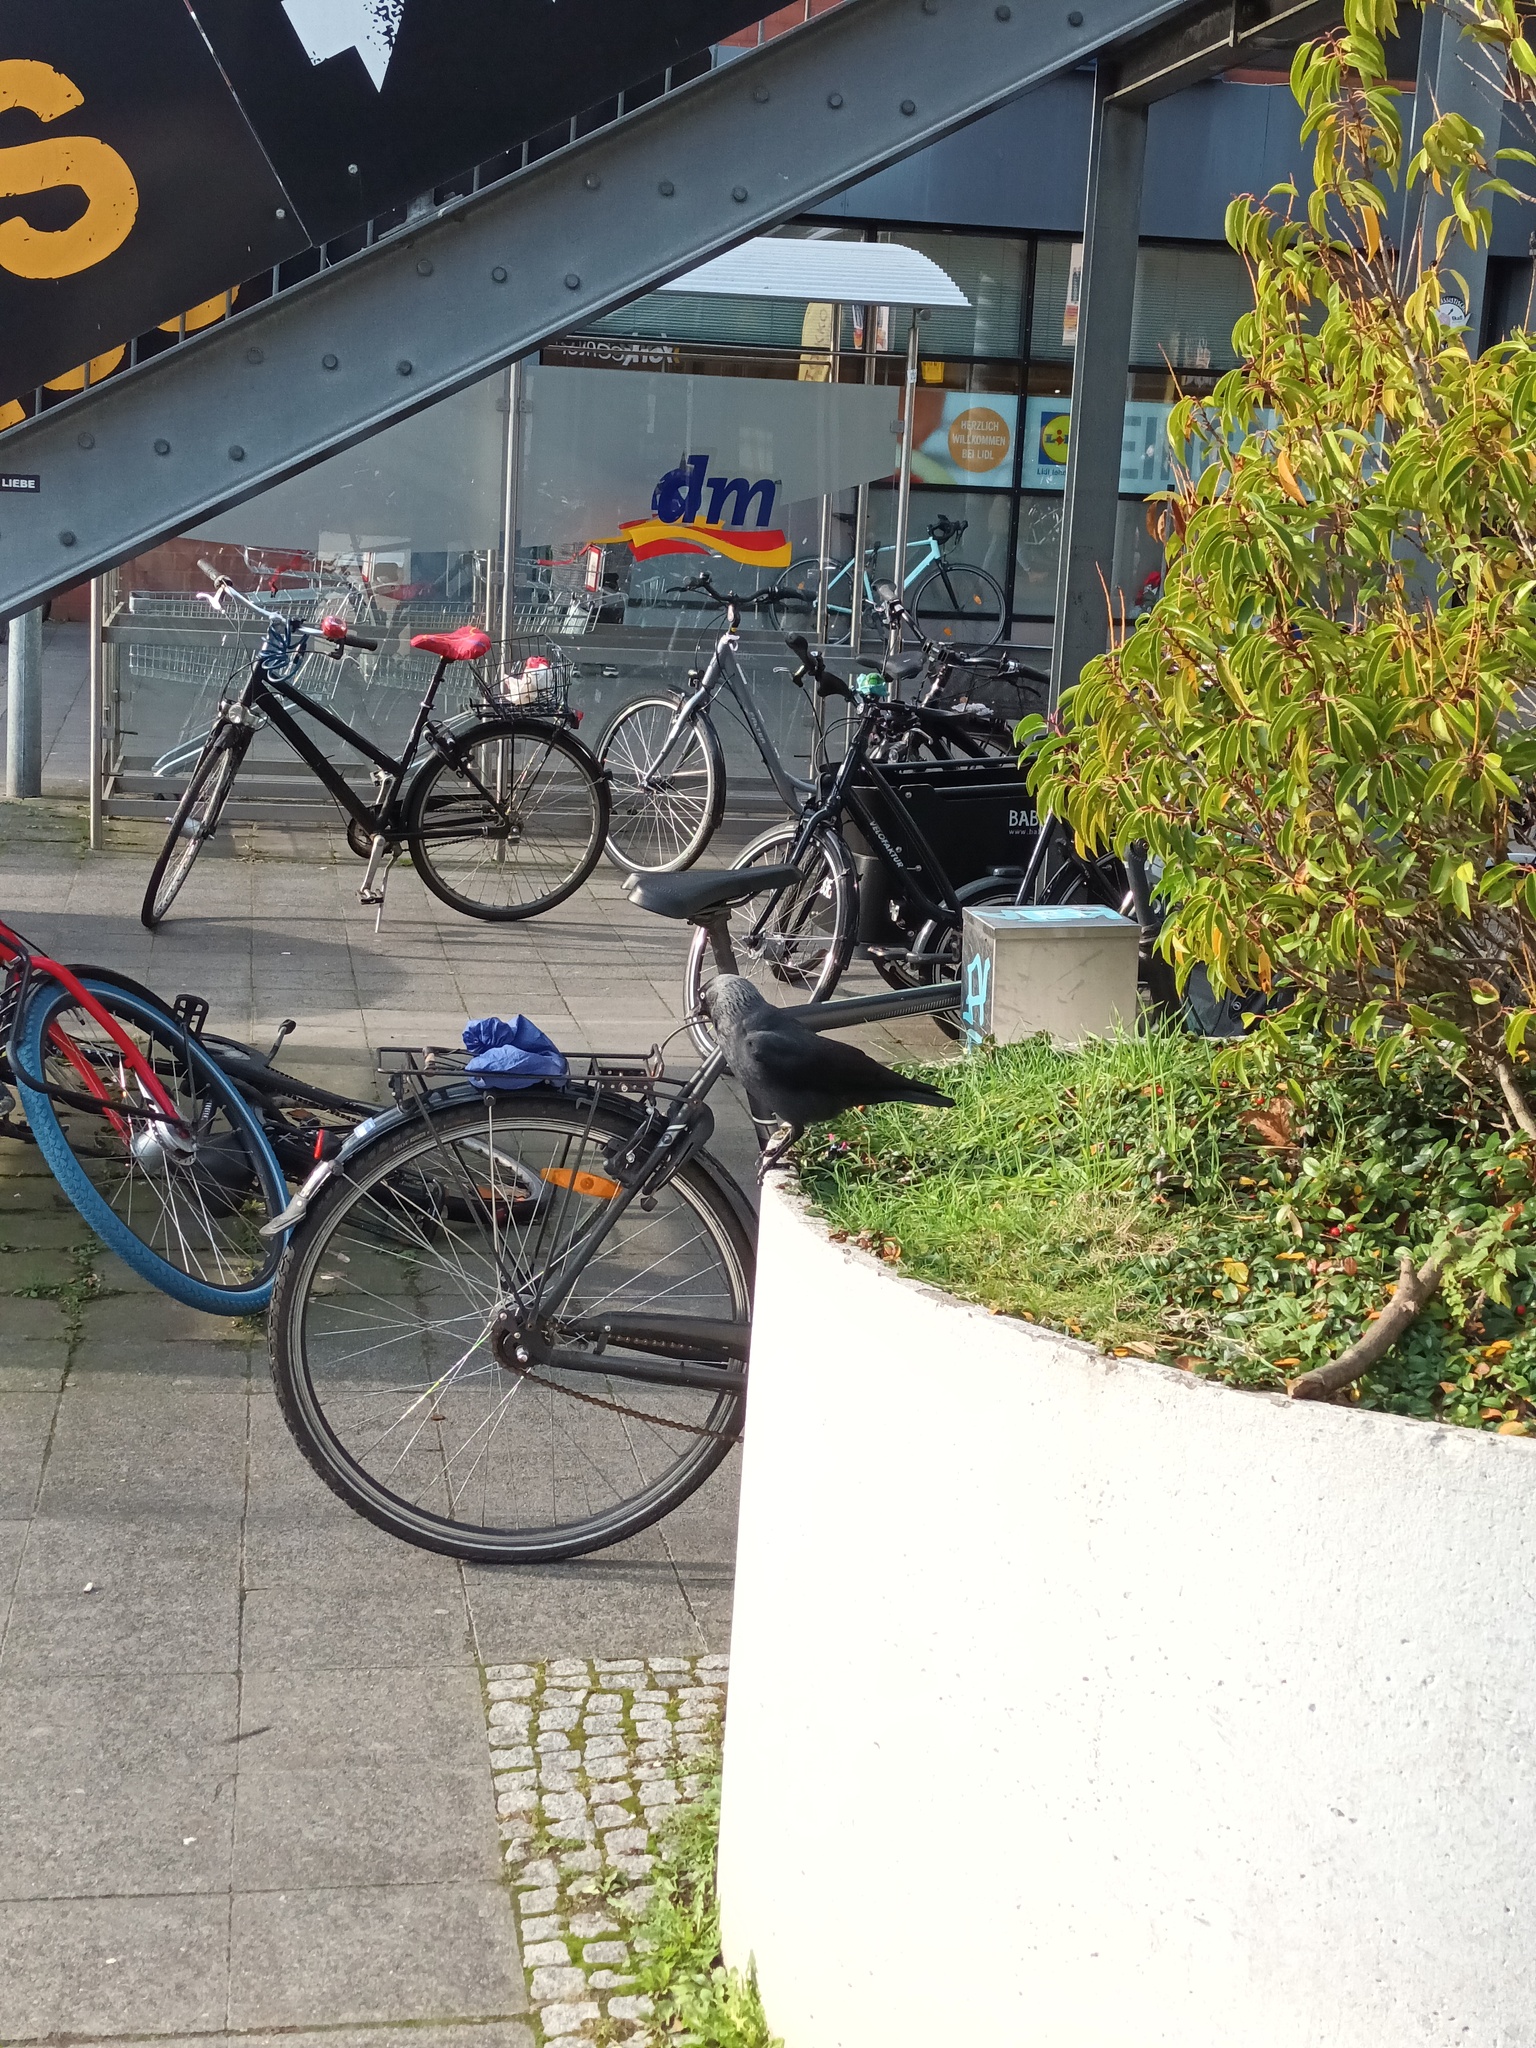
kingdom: Animalia
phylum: Chordata
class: Aves
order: Passeriformes
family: Corvidae
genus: Coloeus
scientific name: Coloeus monedula
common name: Western jackdaw
